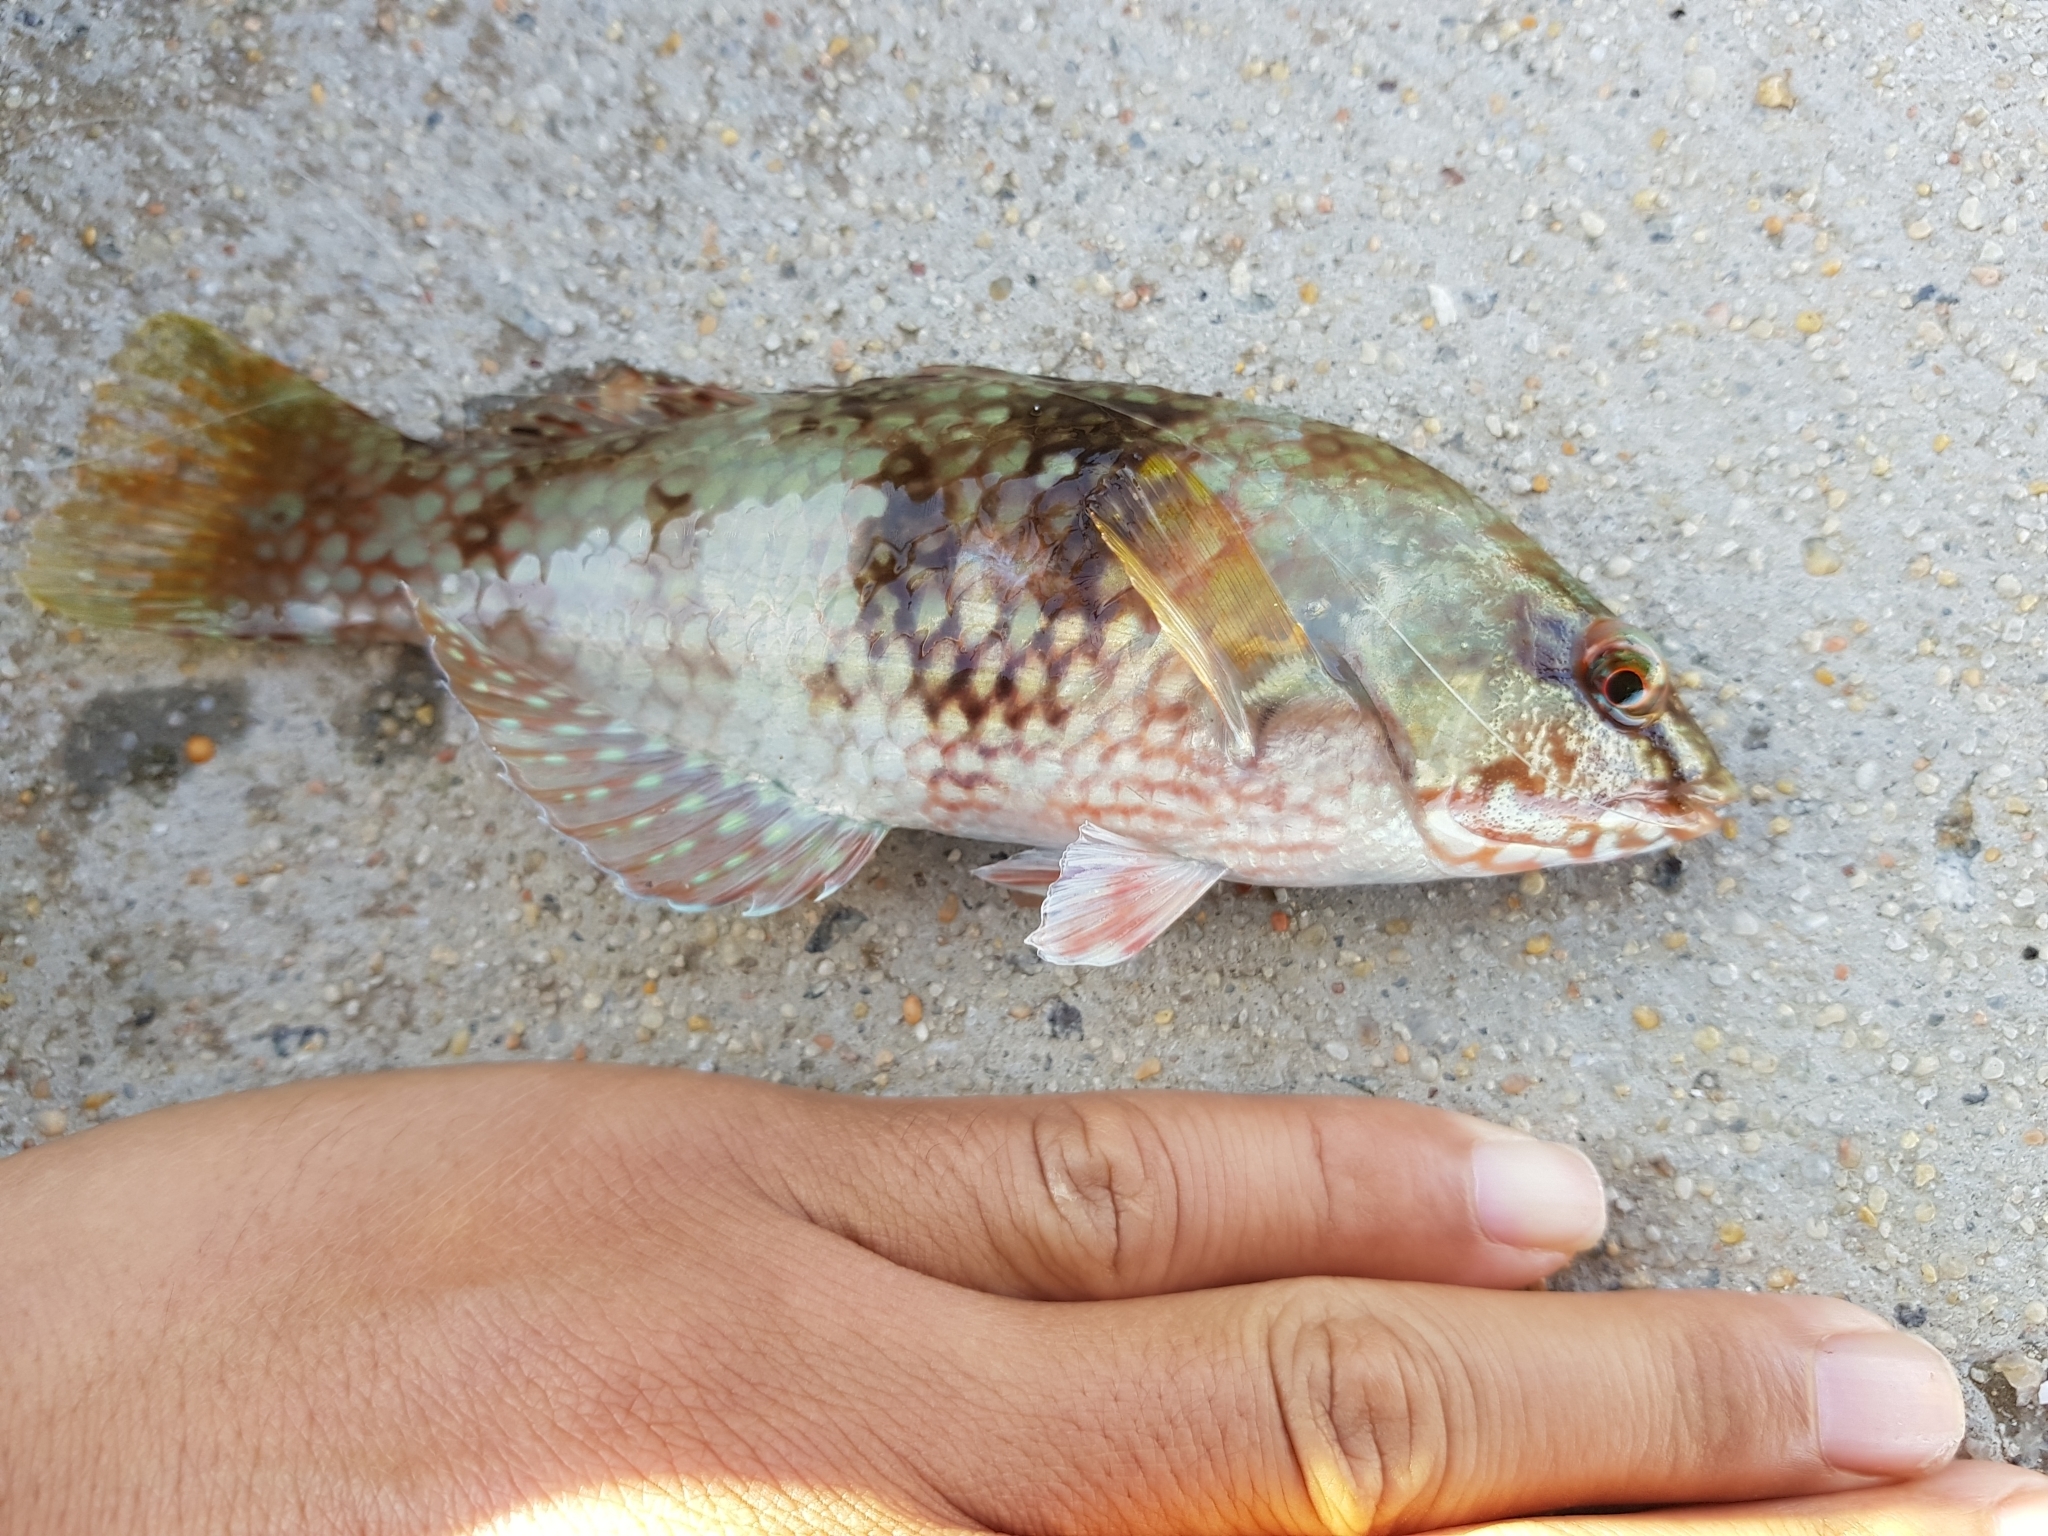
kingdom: Animalia
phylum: Chordata
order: Perciformes
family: Labridae
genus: Notolabrus
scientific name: Notolabrus tetricus
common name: Blue-throated parrotfish
